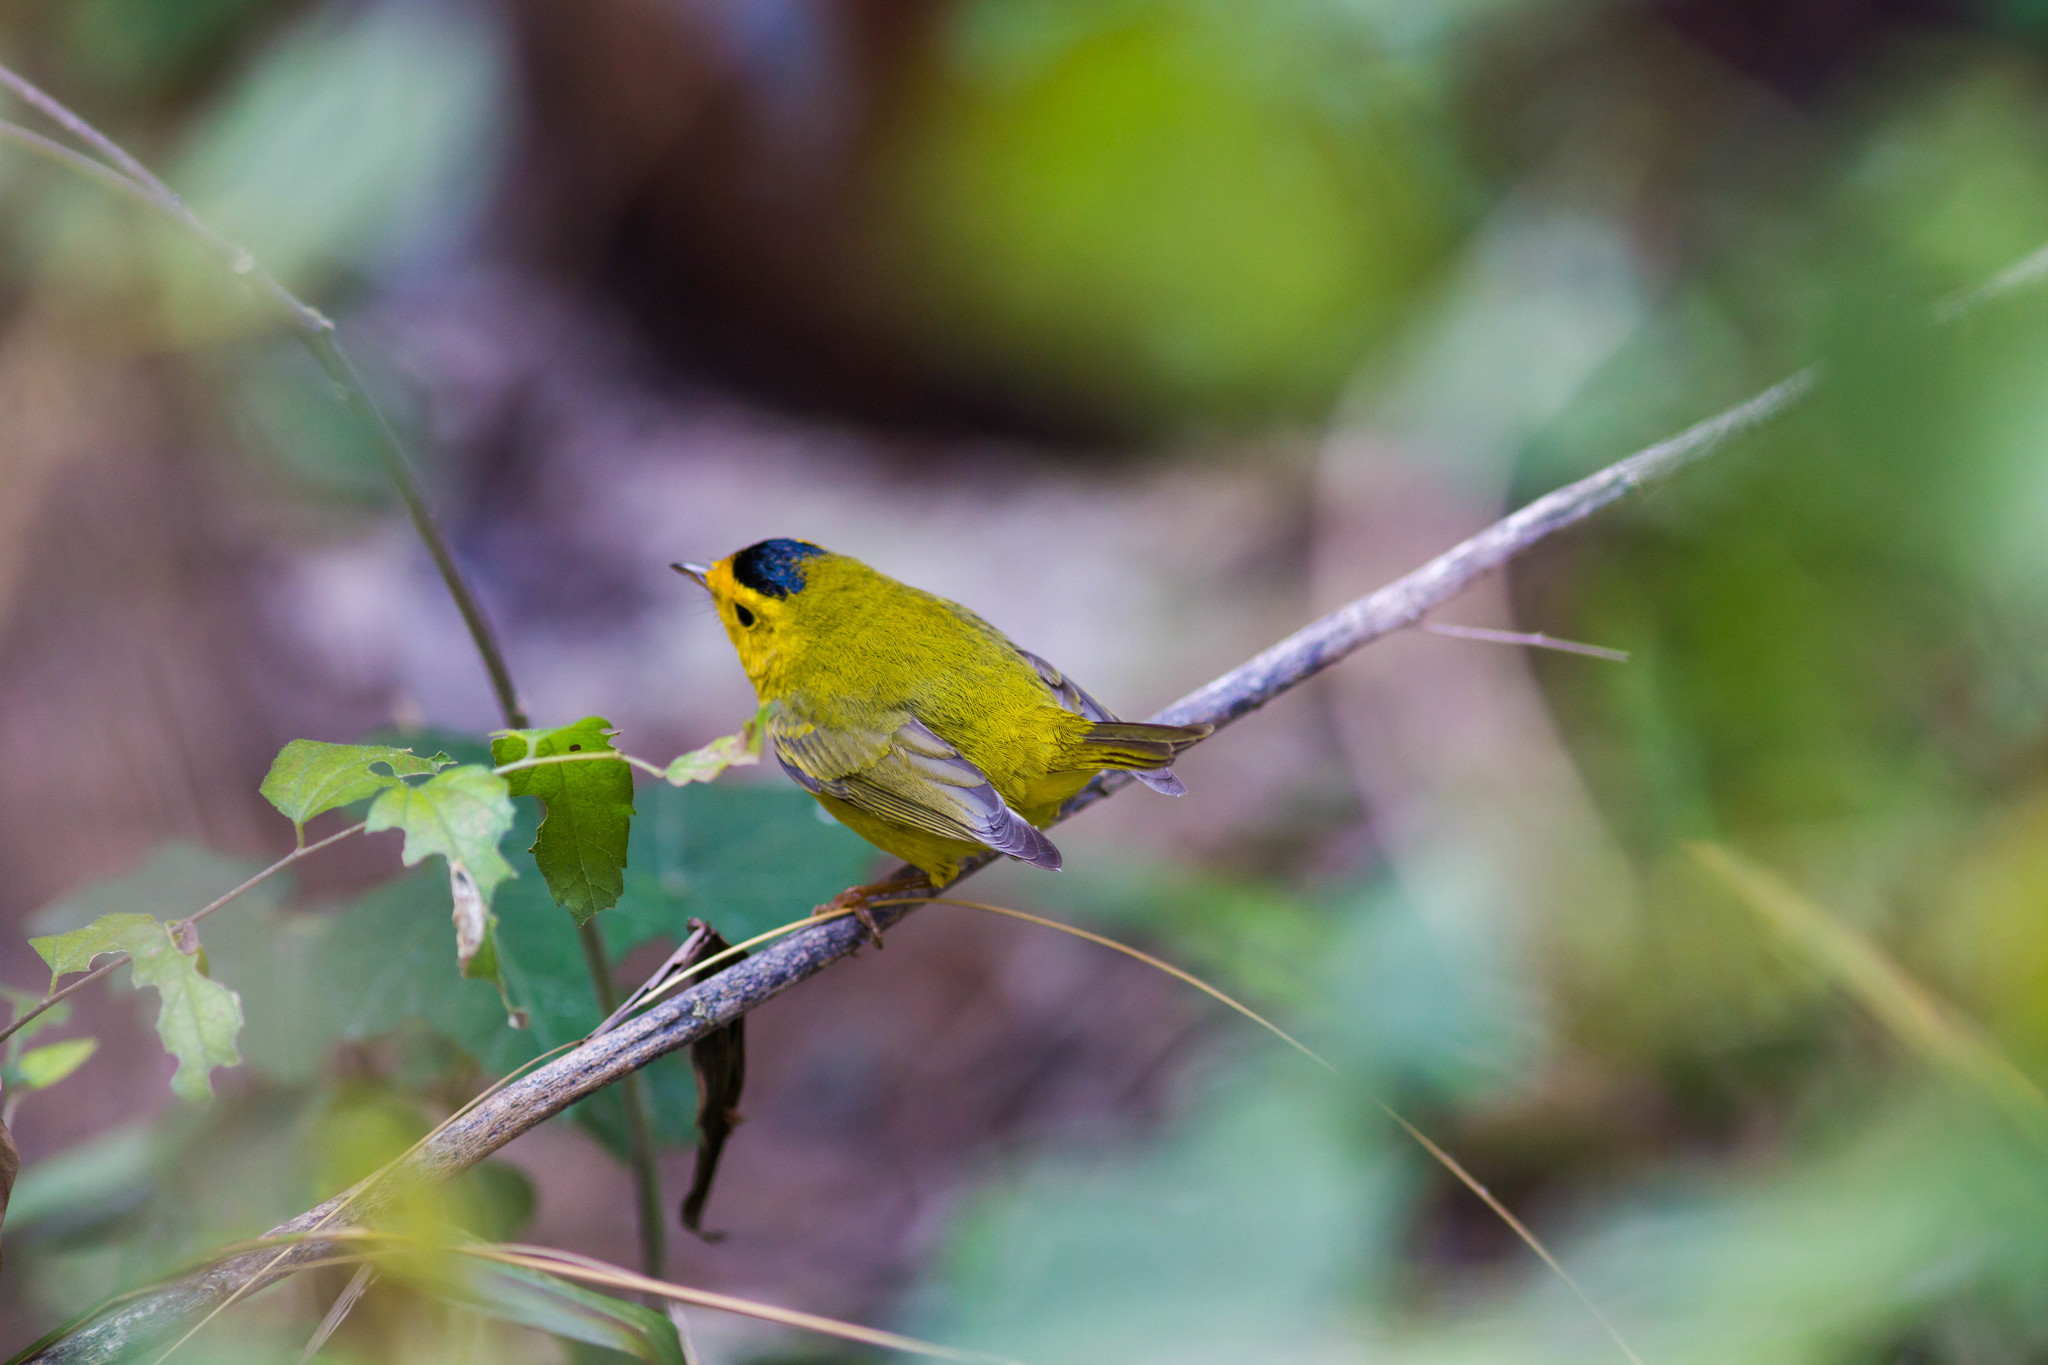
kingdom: Animalia
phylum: Chordata
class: Aves
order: Passeriformes
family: Parulidae
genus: Cardellina
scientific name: Cardellina pusilla
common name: Wilson's warbler
